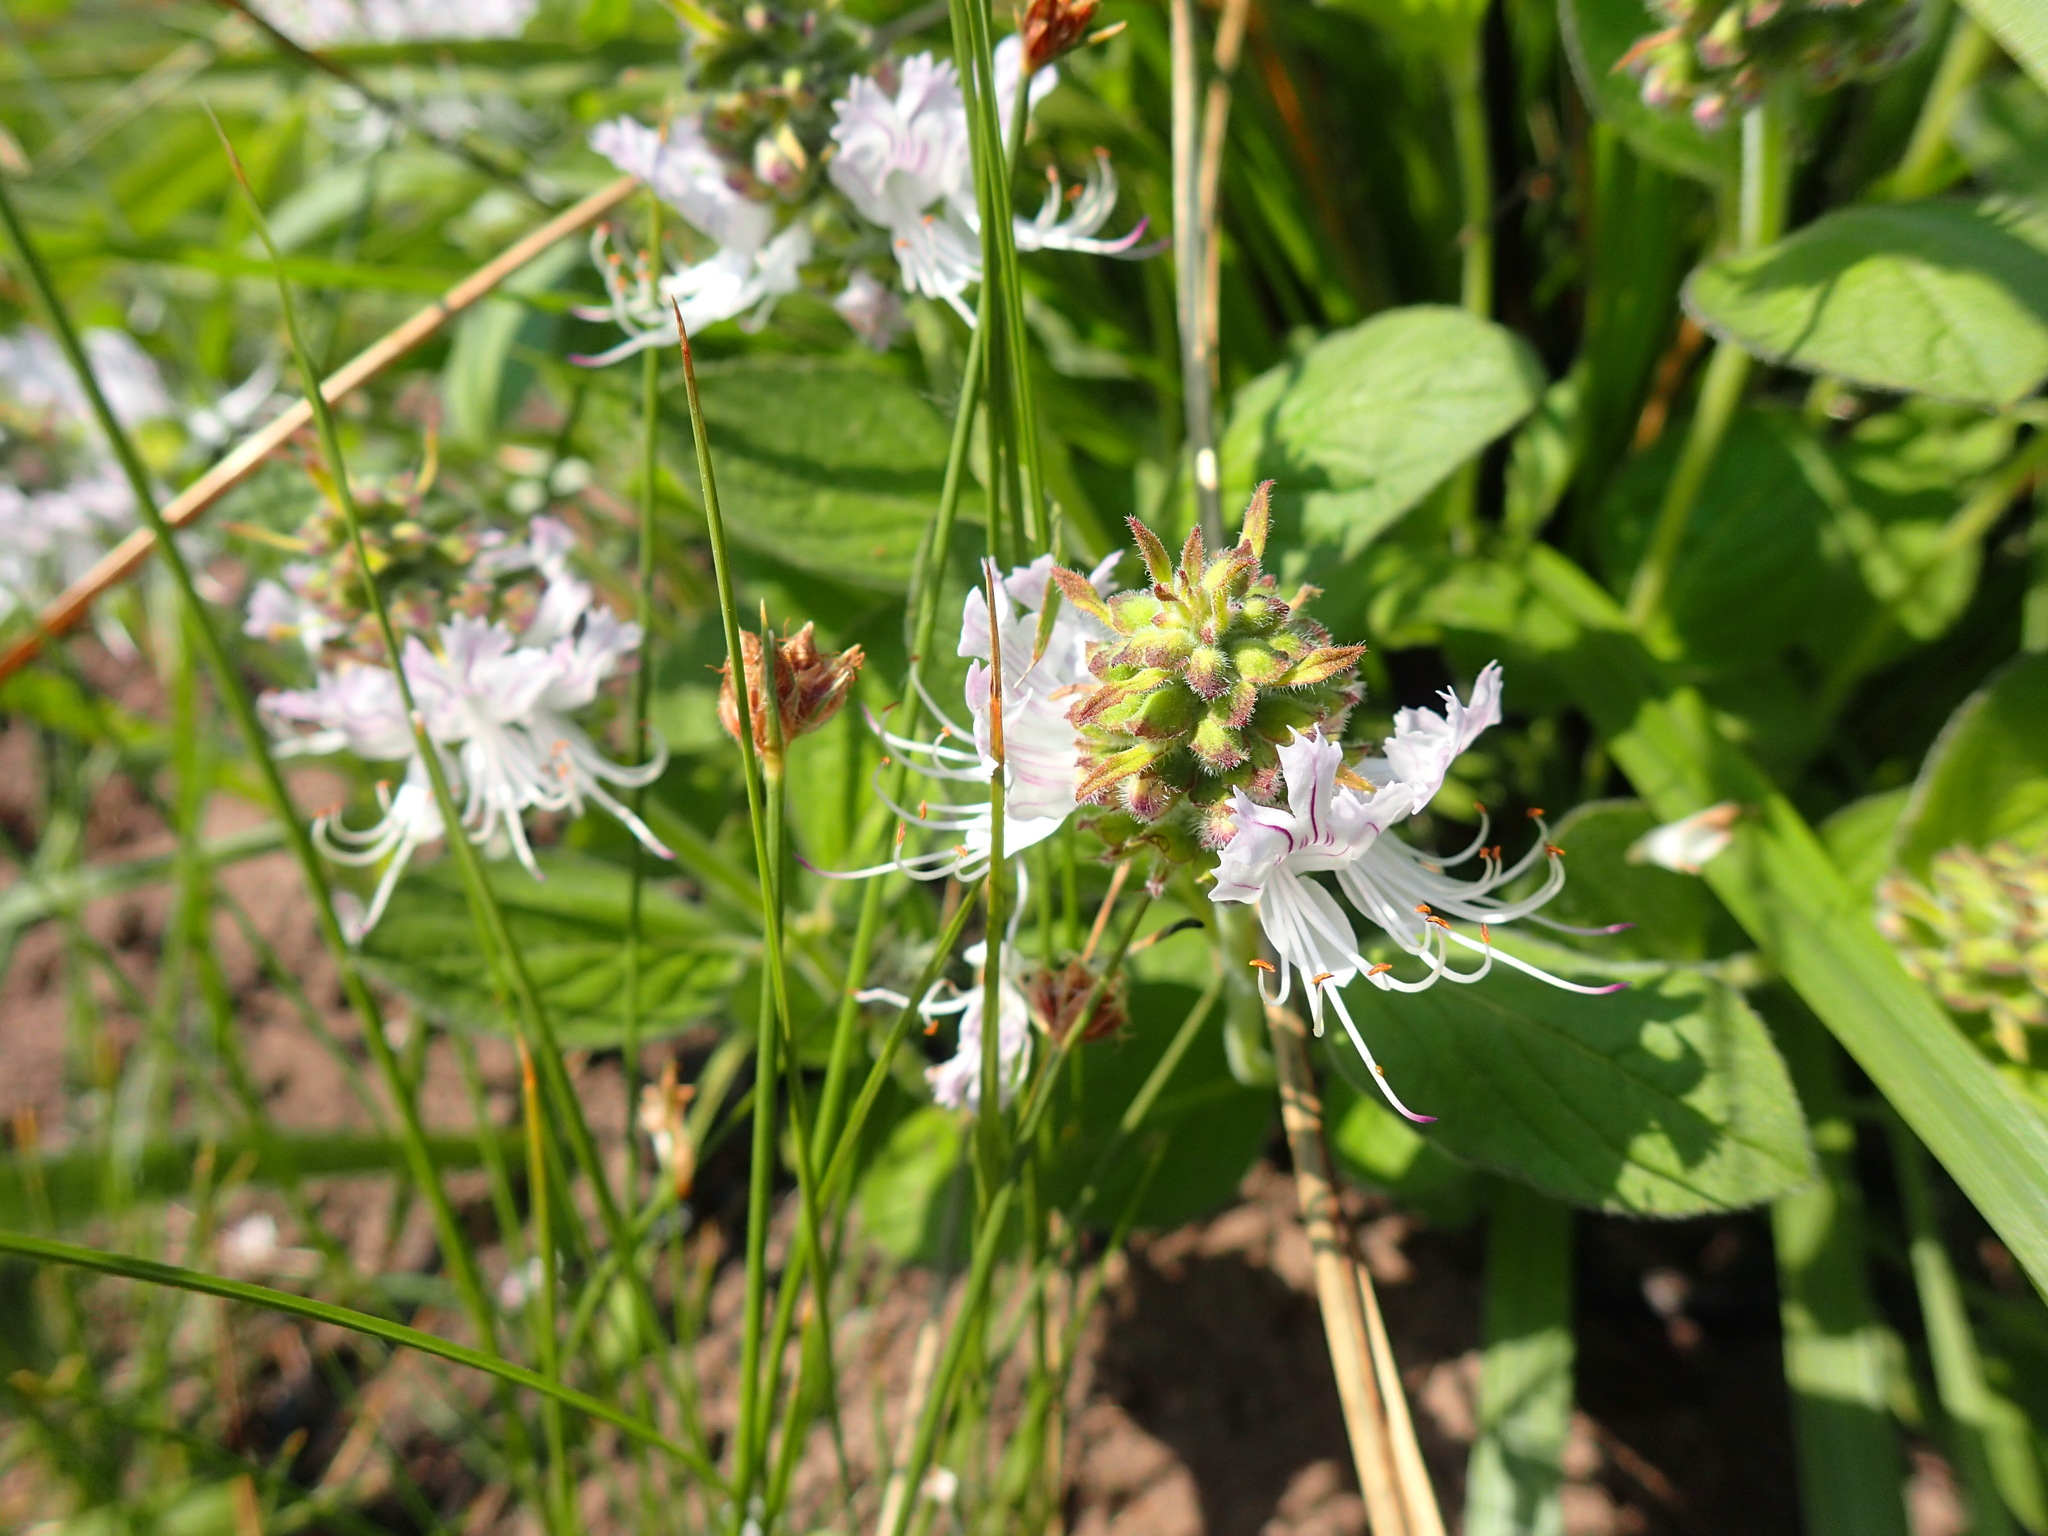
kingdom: Plantae
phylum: Tracheophyta
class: Magnoliopsida
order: Lamiales
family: Lamiaceae
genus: Ocimum
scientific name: Ocimum obovatum
